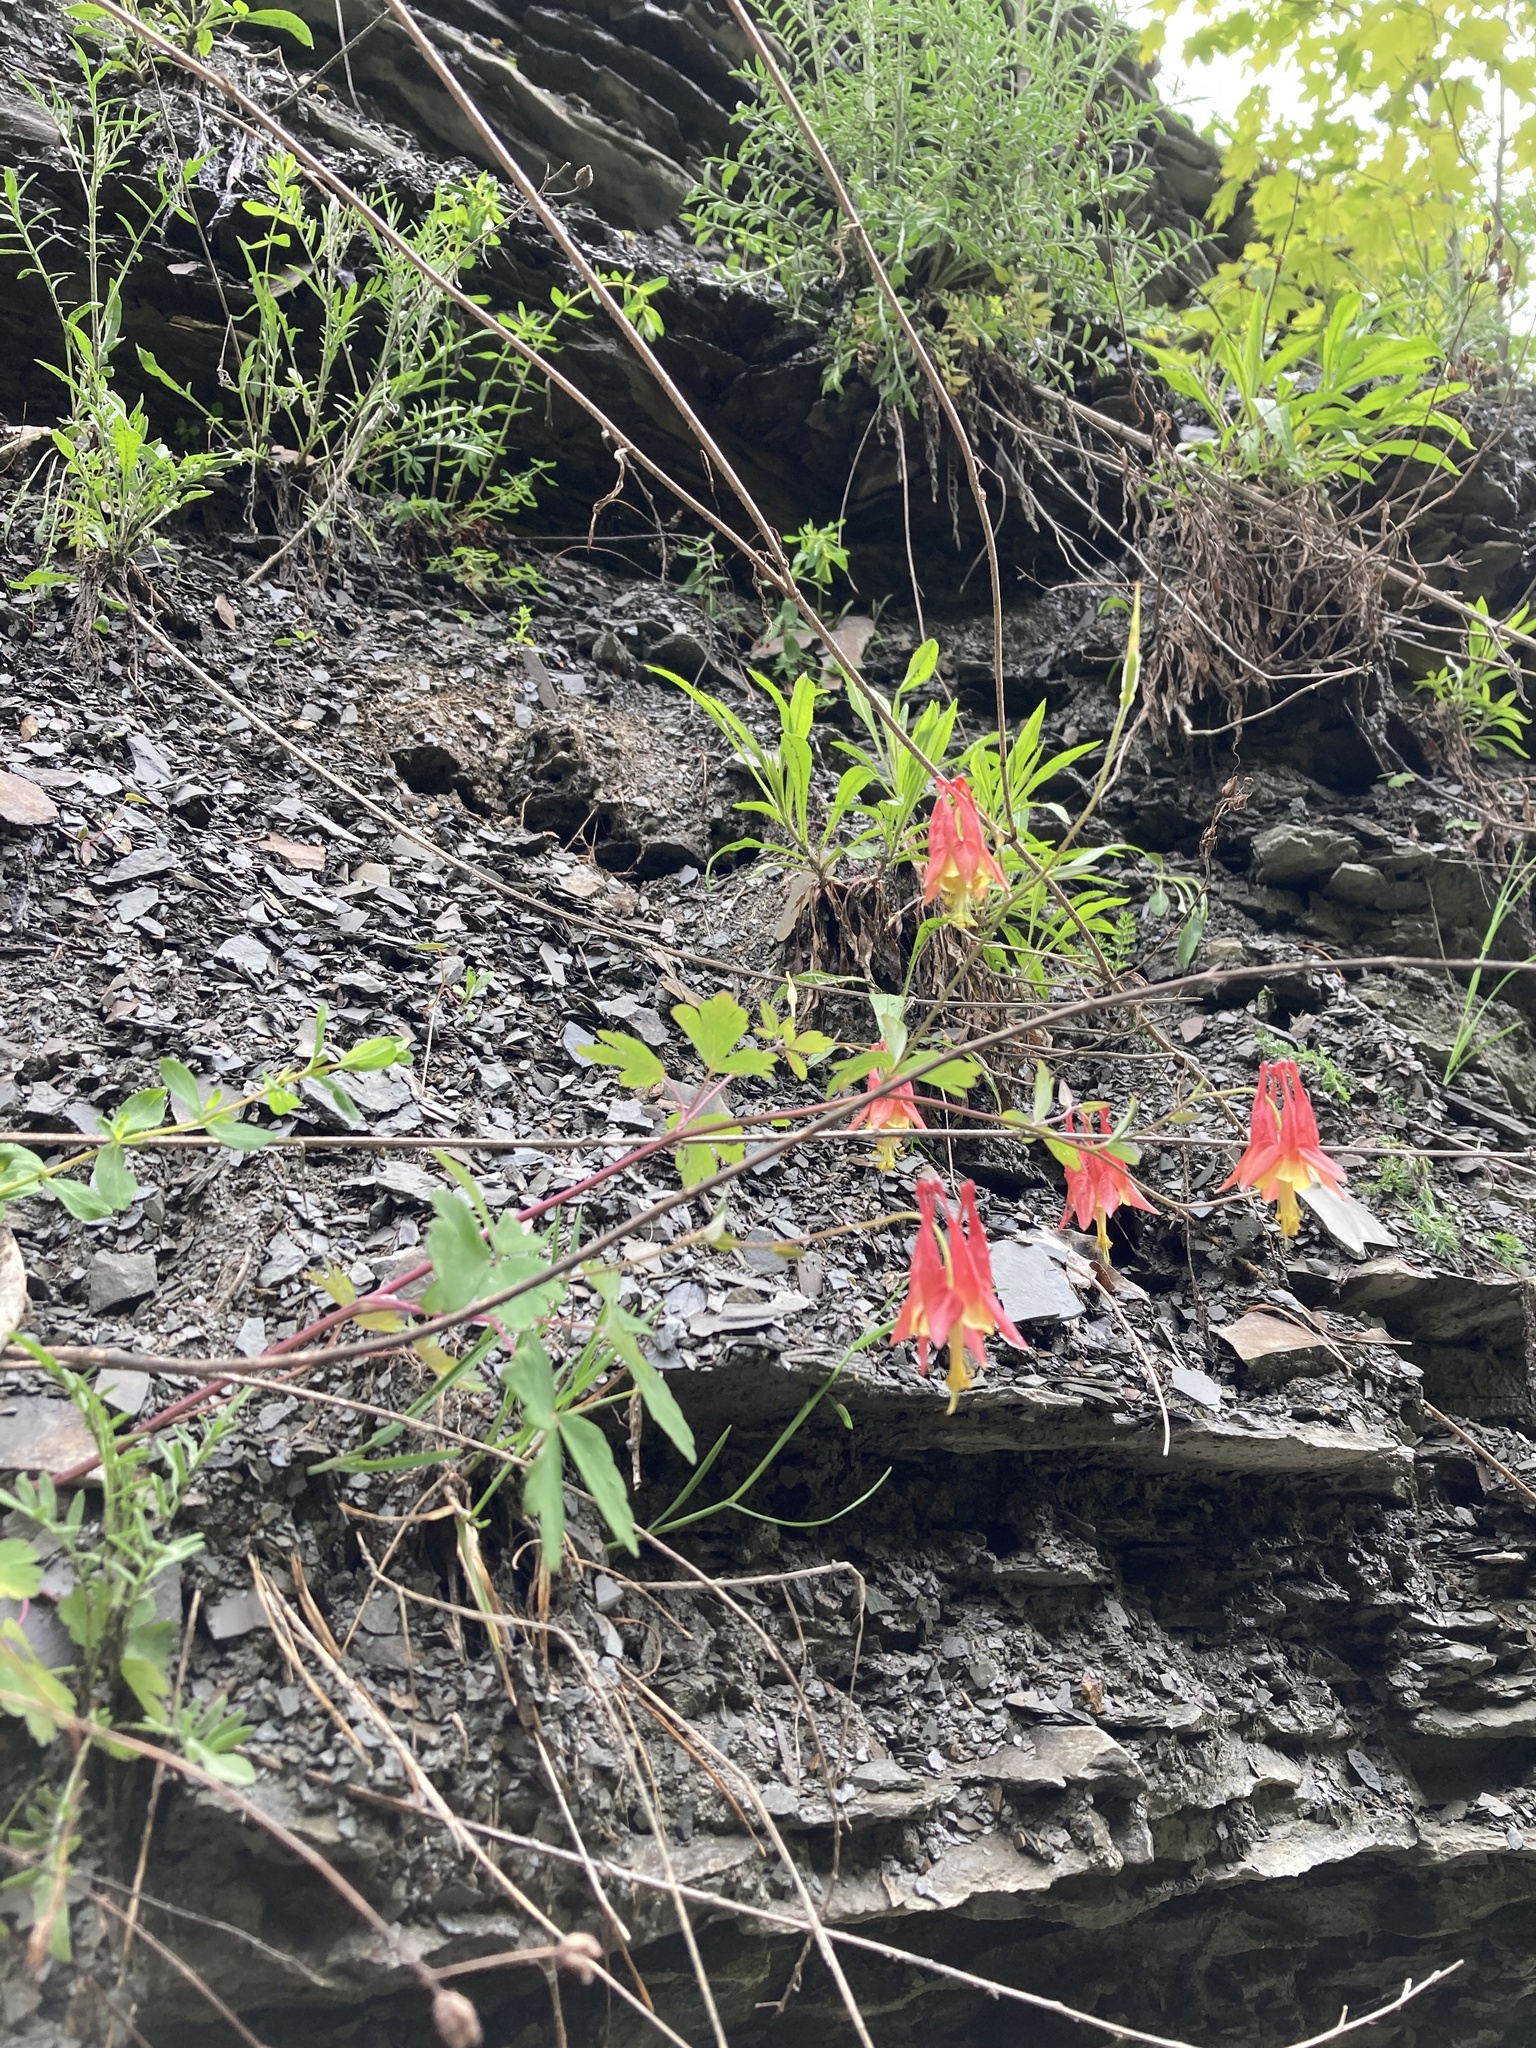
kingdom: Plantae
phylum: Tracheophyta
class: Magnoliopsida
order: Ranunculales
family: Ranunculaceae
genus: Aquilegia
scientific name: Aquilegia canadensis
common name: American columbine
